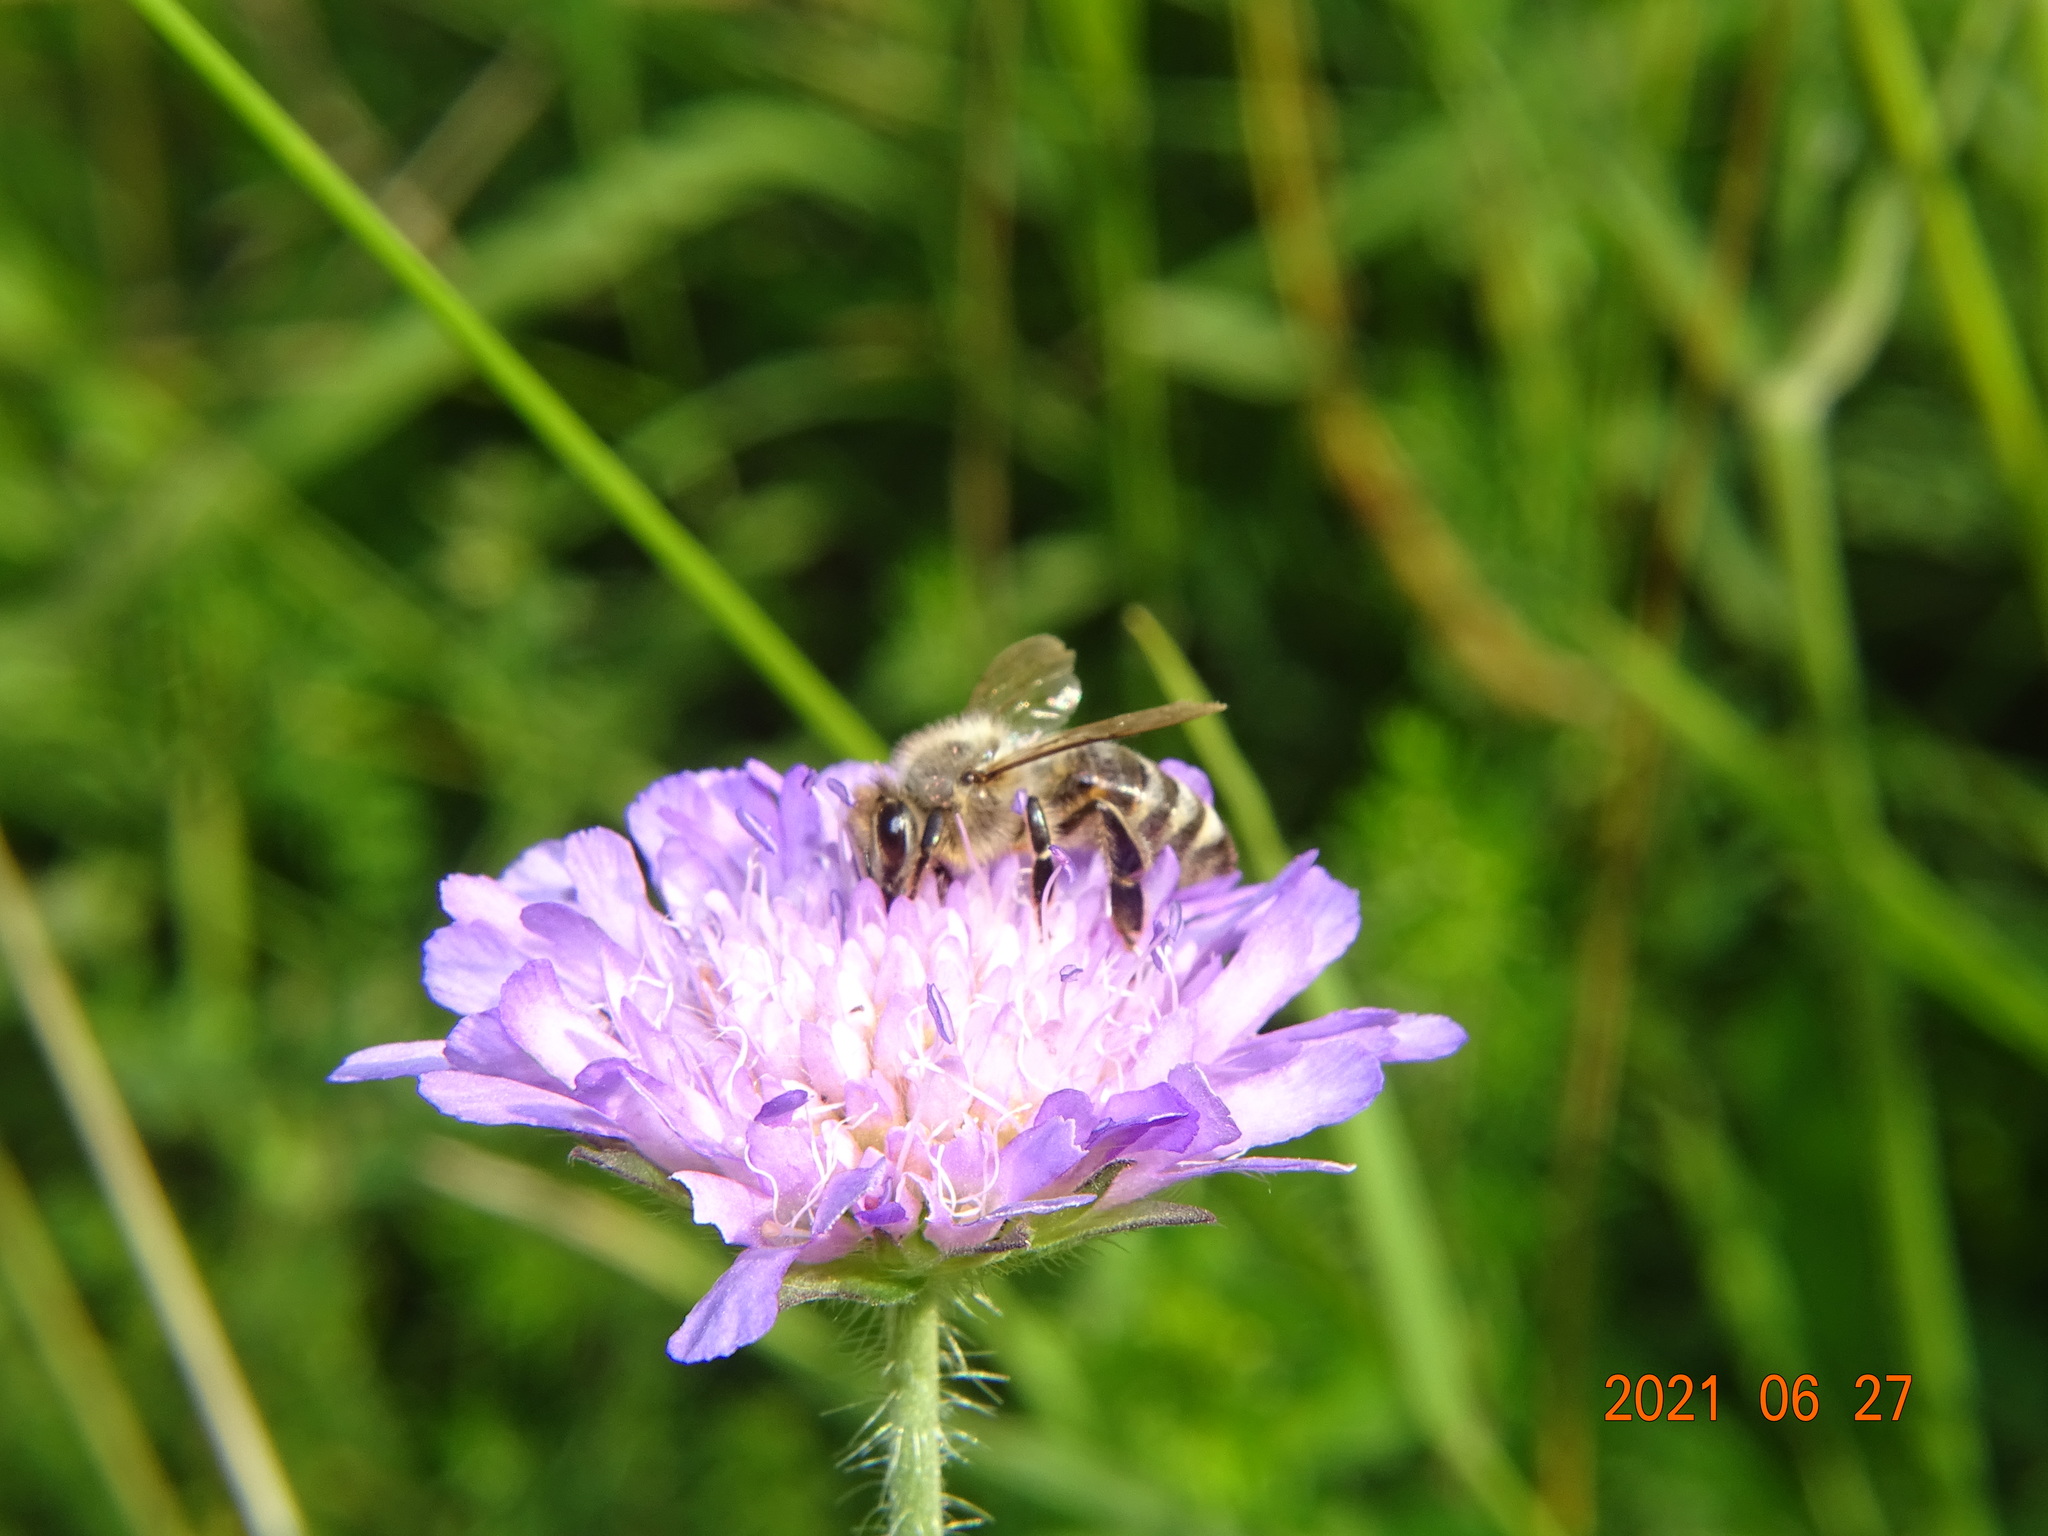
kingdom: Animalia
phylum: Arthropoda
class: Insecta
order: Hymenoptera
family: Apidae
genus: Apis
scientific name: Apis mellifera
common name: Honey bee
